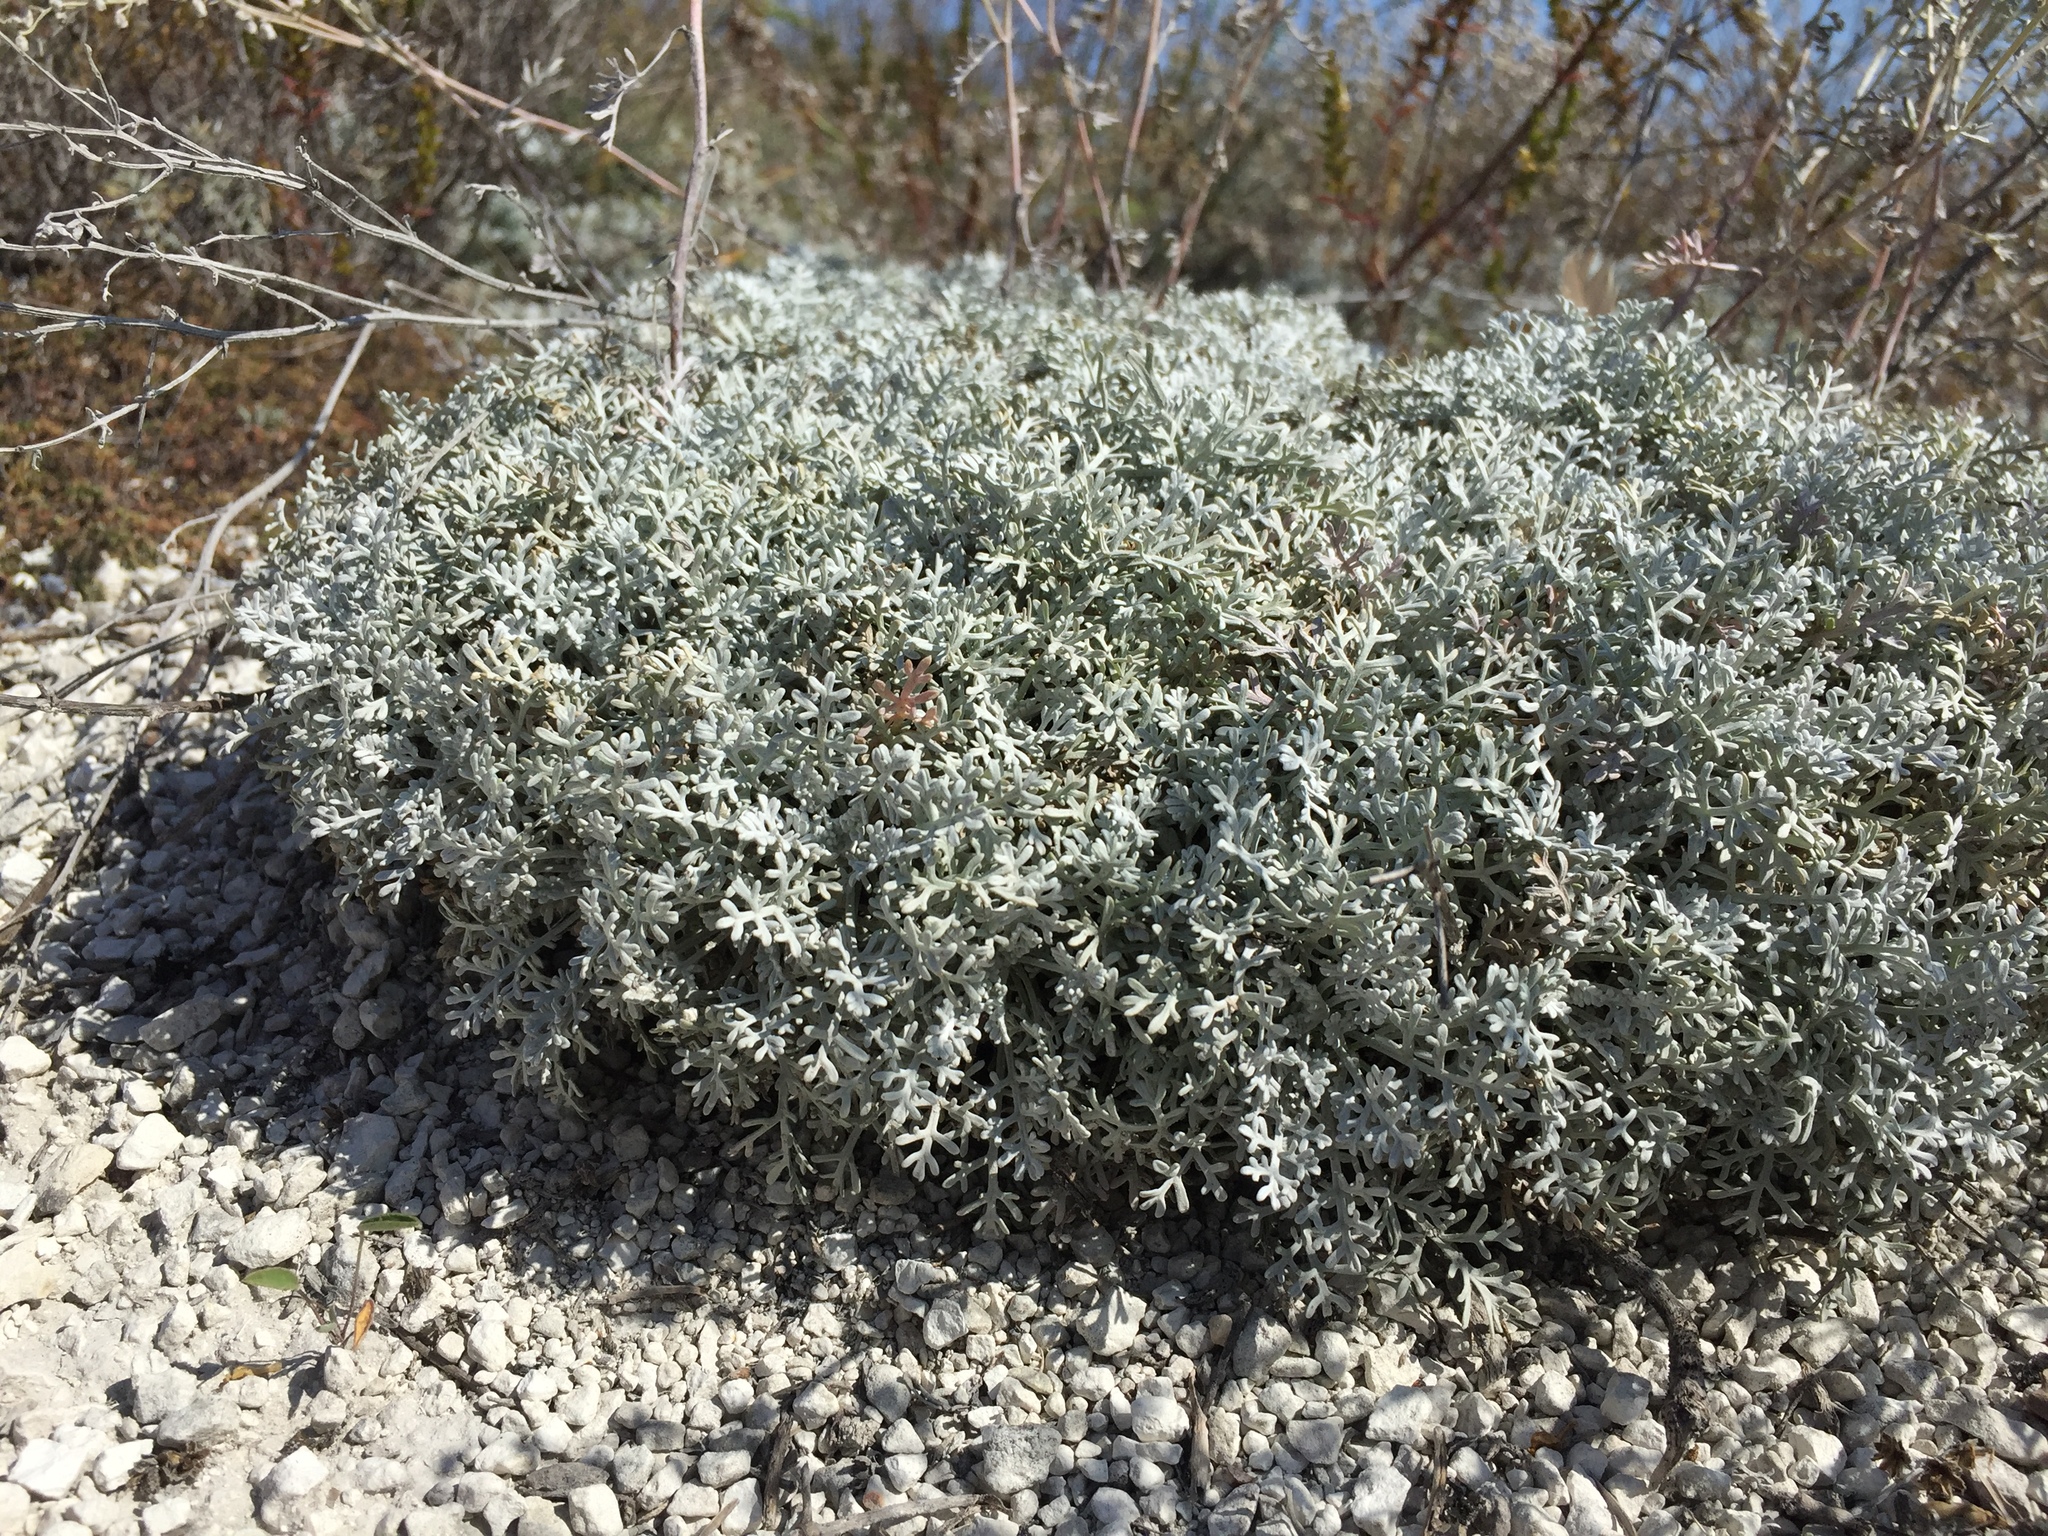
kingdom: Plantae
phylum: Tracheophyta
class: Magnoliopsida
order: Asterales
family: Asteraceae
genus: Artemisia
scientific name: Artemisia hololeuca
